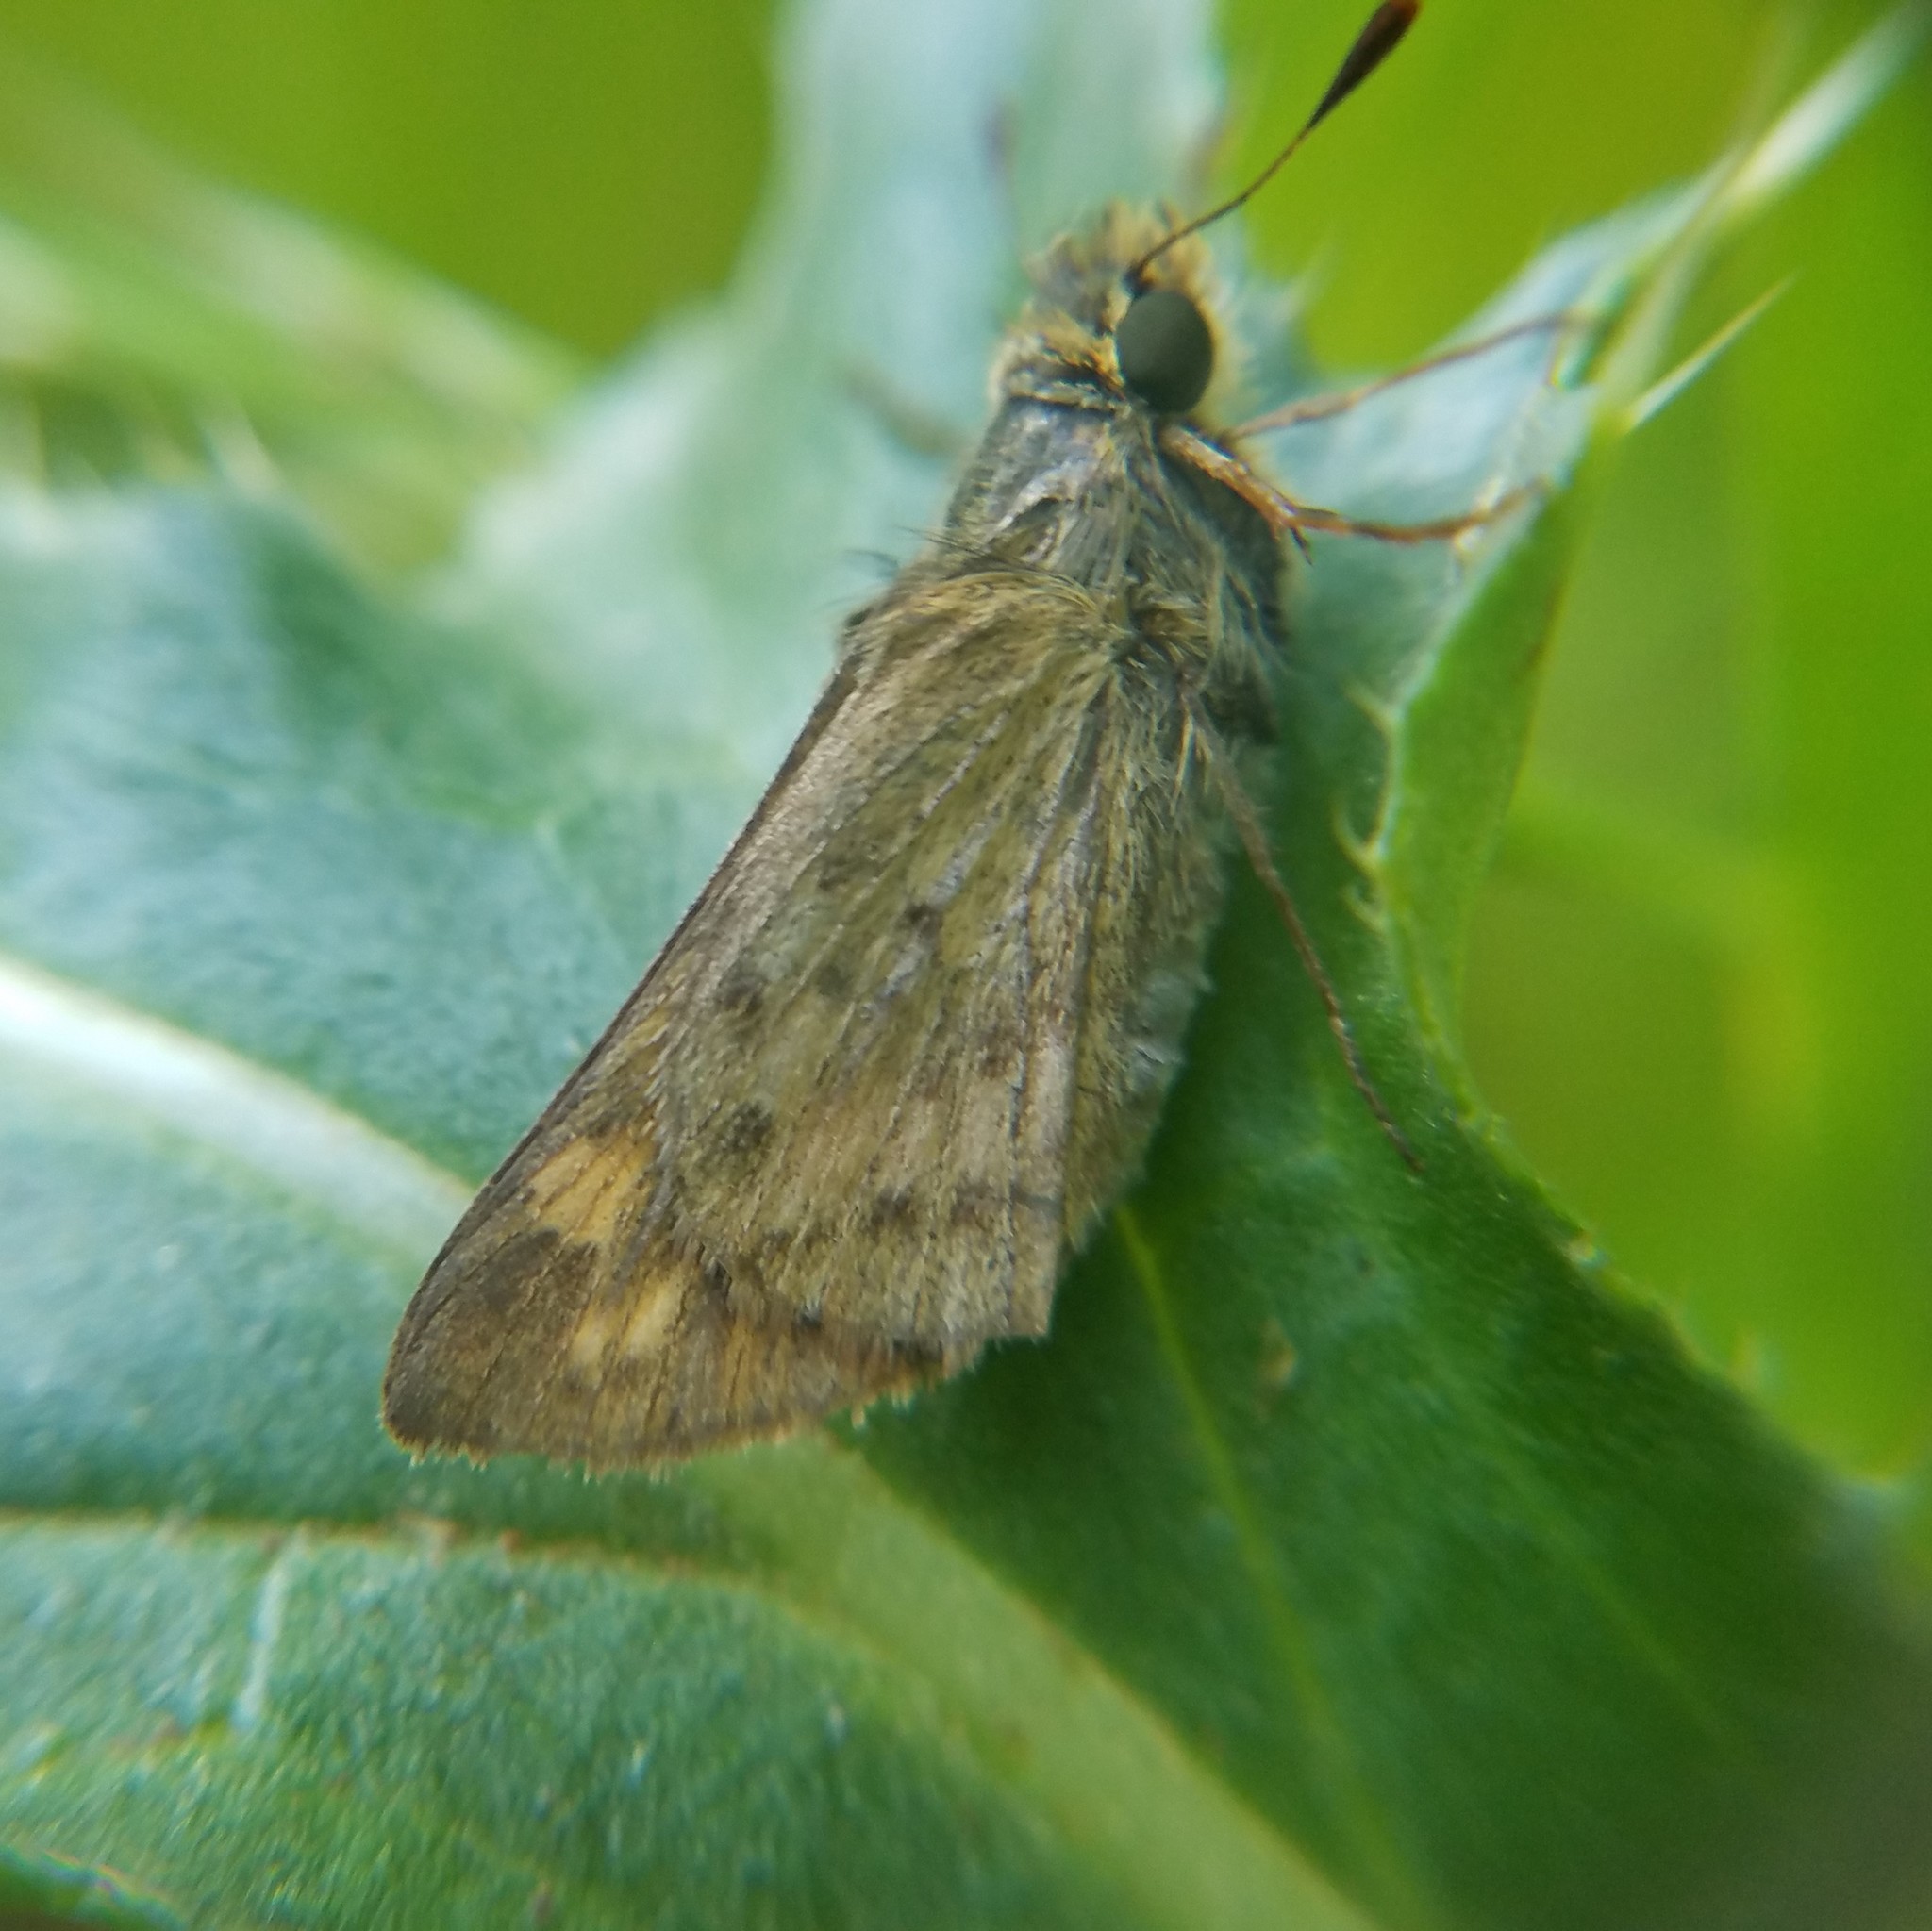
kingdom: Animalia
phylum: Arthropoda
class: Insecta
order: Lepidoptera
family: Hesperiidae
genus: Hylephila
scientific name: Hylephila phyleus
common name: Fiery skipper
